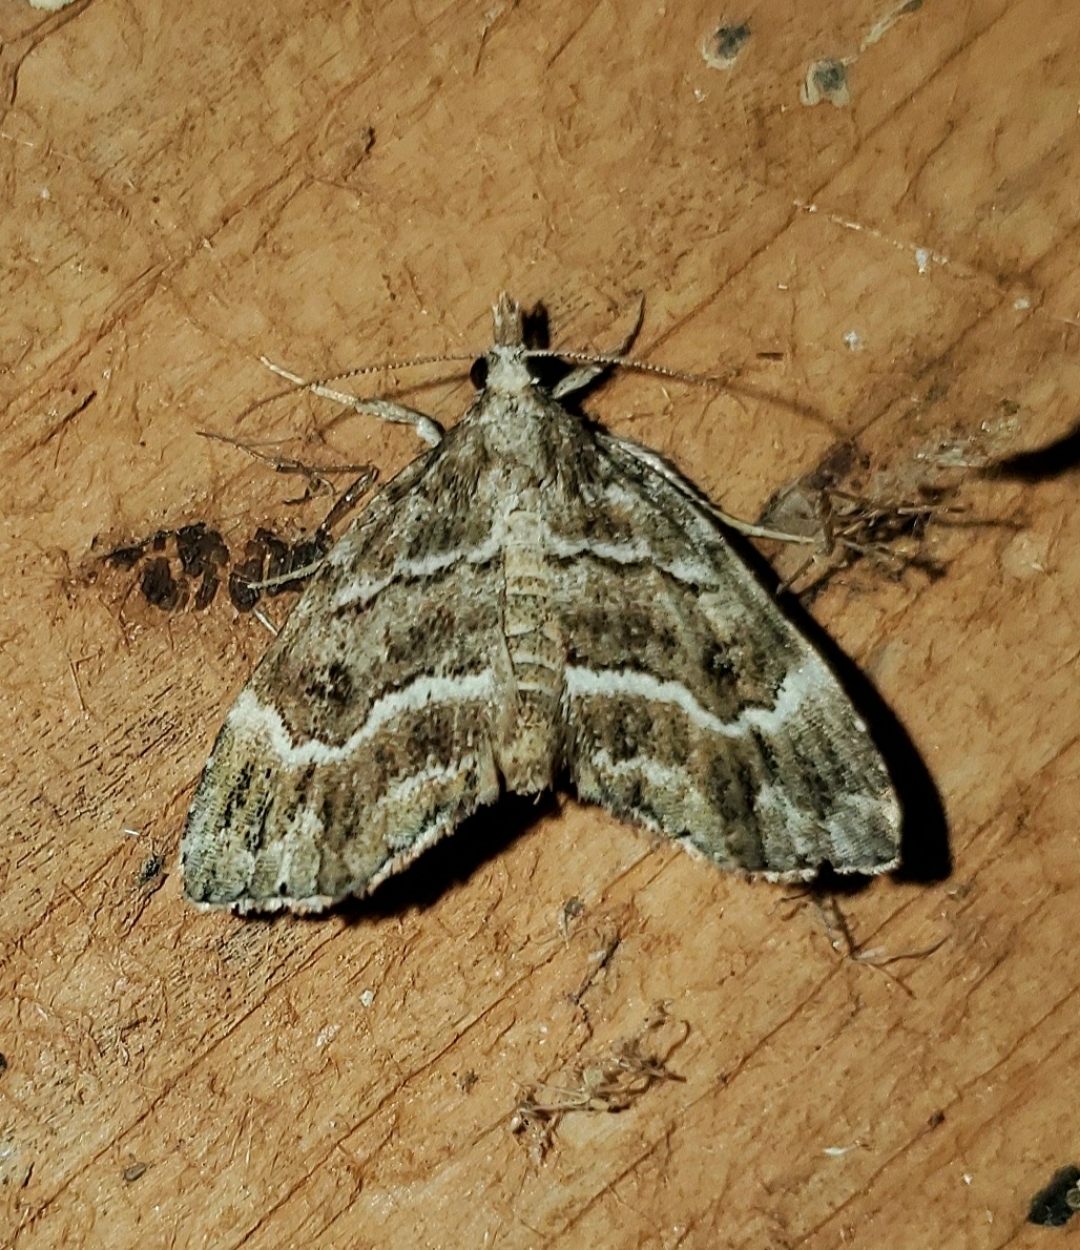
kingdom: Animalia
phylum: Arthropoda
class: Insecta
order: Lepidoptera
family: Erebidae
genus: Cutina
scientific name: Cutina arcuata
